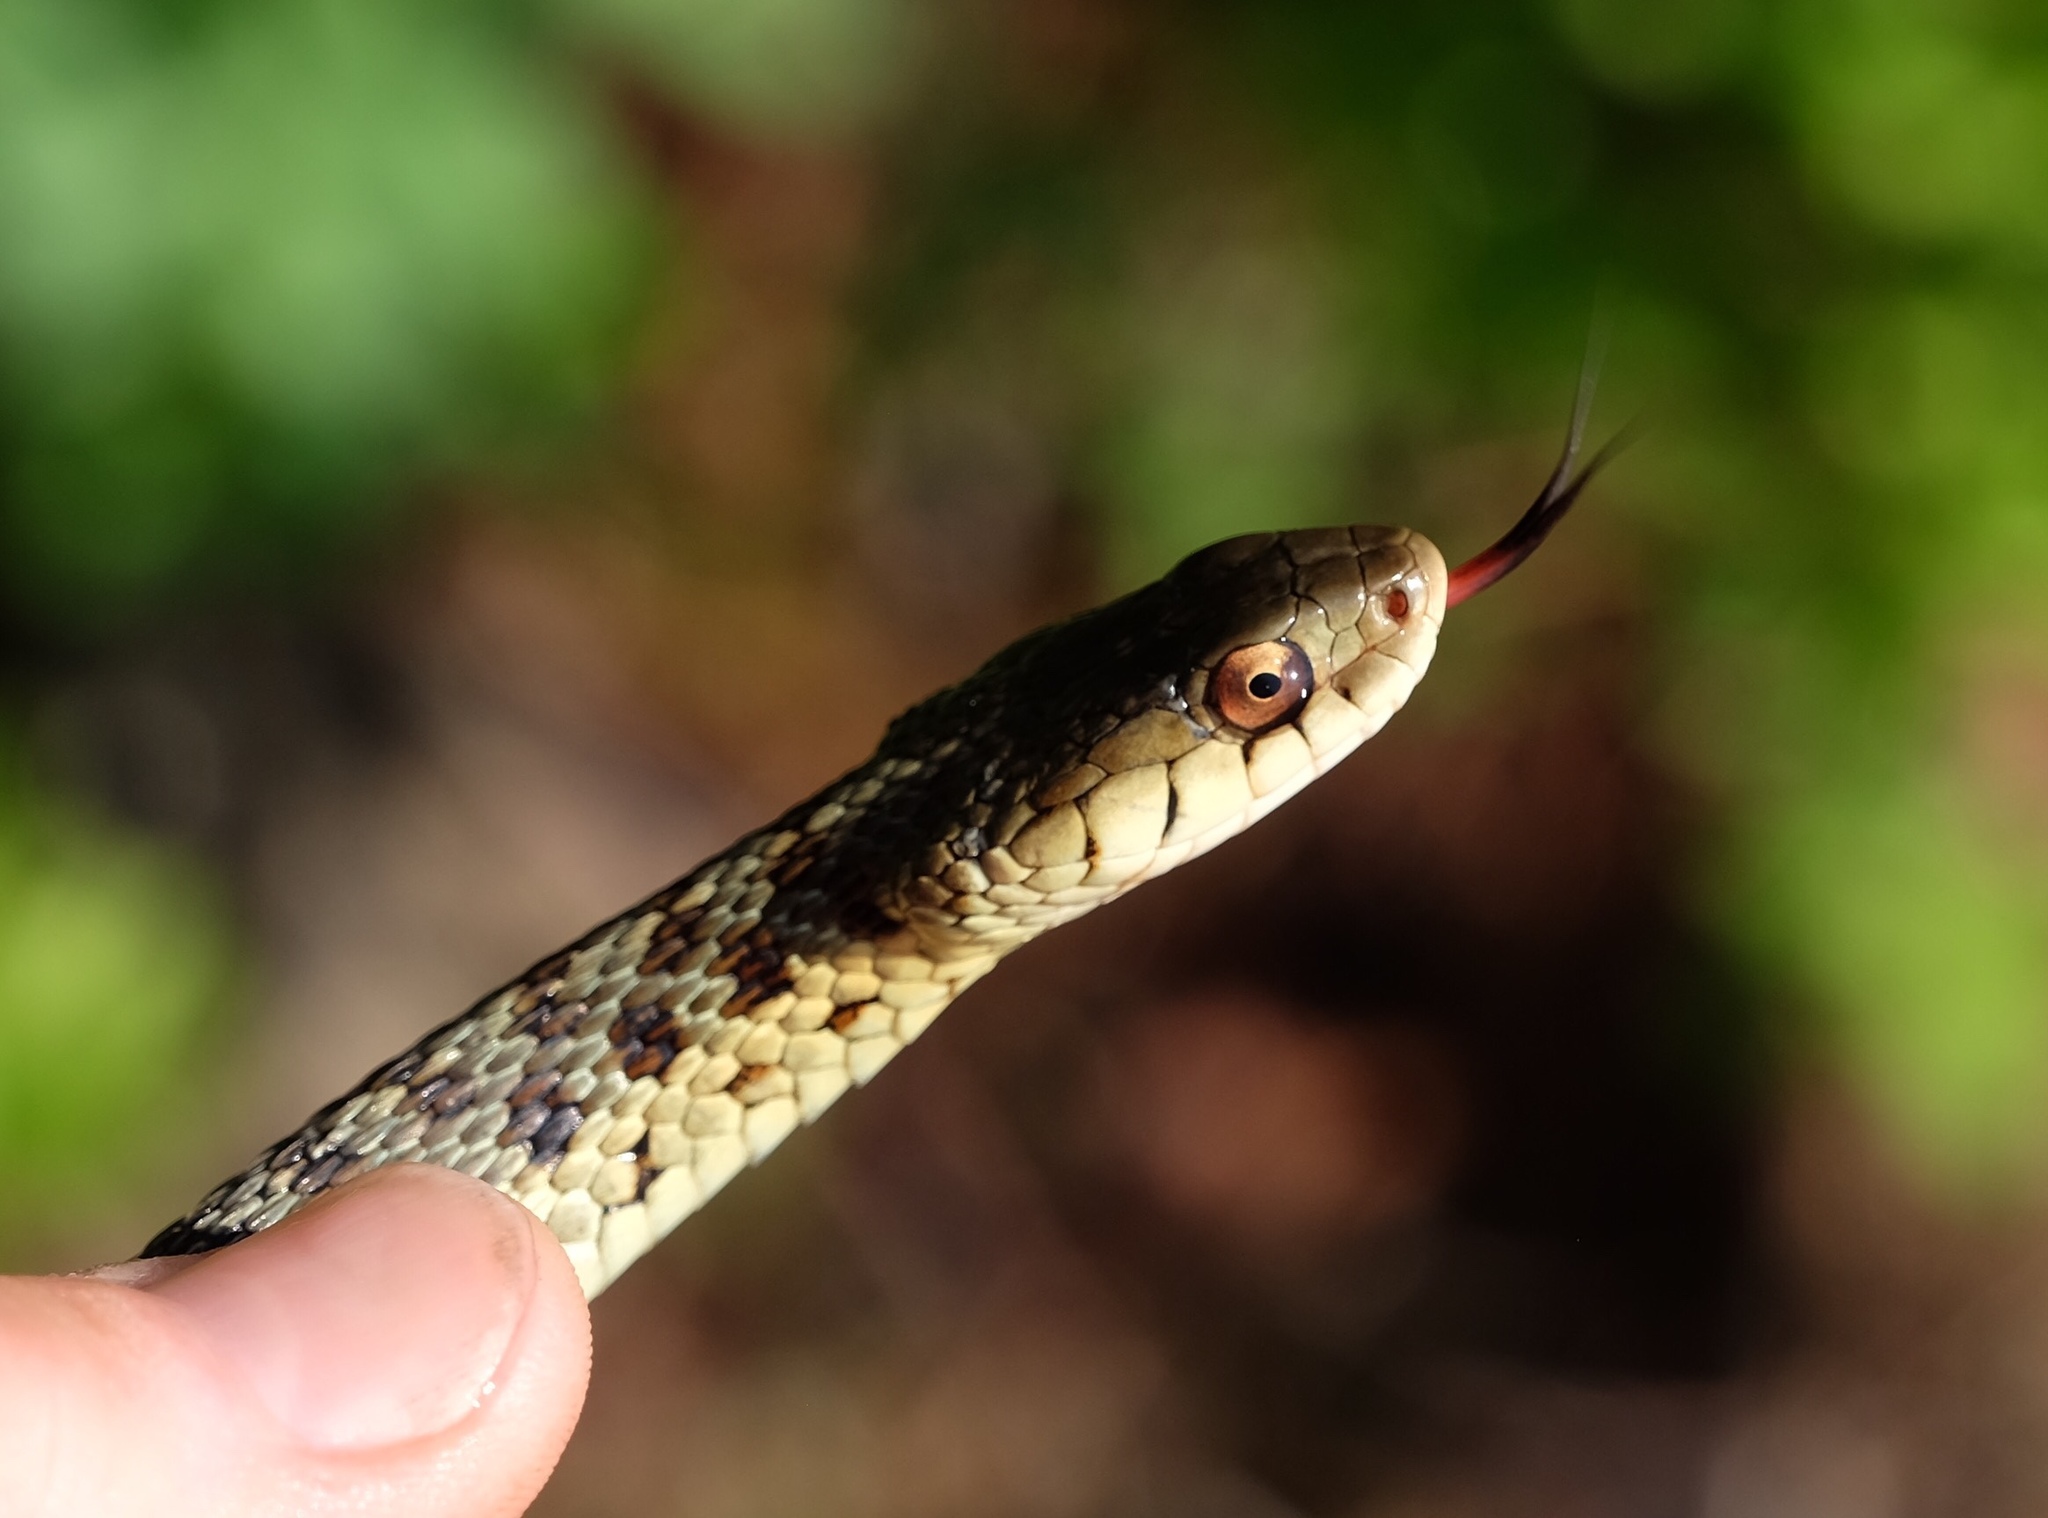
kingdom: Animalia
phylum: Chordata
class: Squamata
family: Colubridae
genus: Thamnophis
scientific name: Thamnophis sirtalis
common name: Common garter snake
